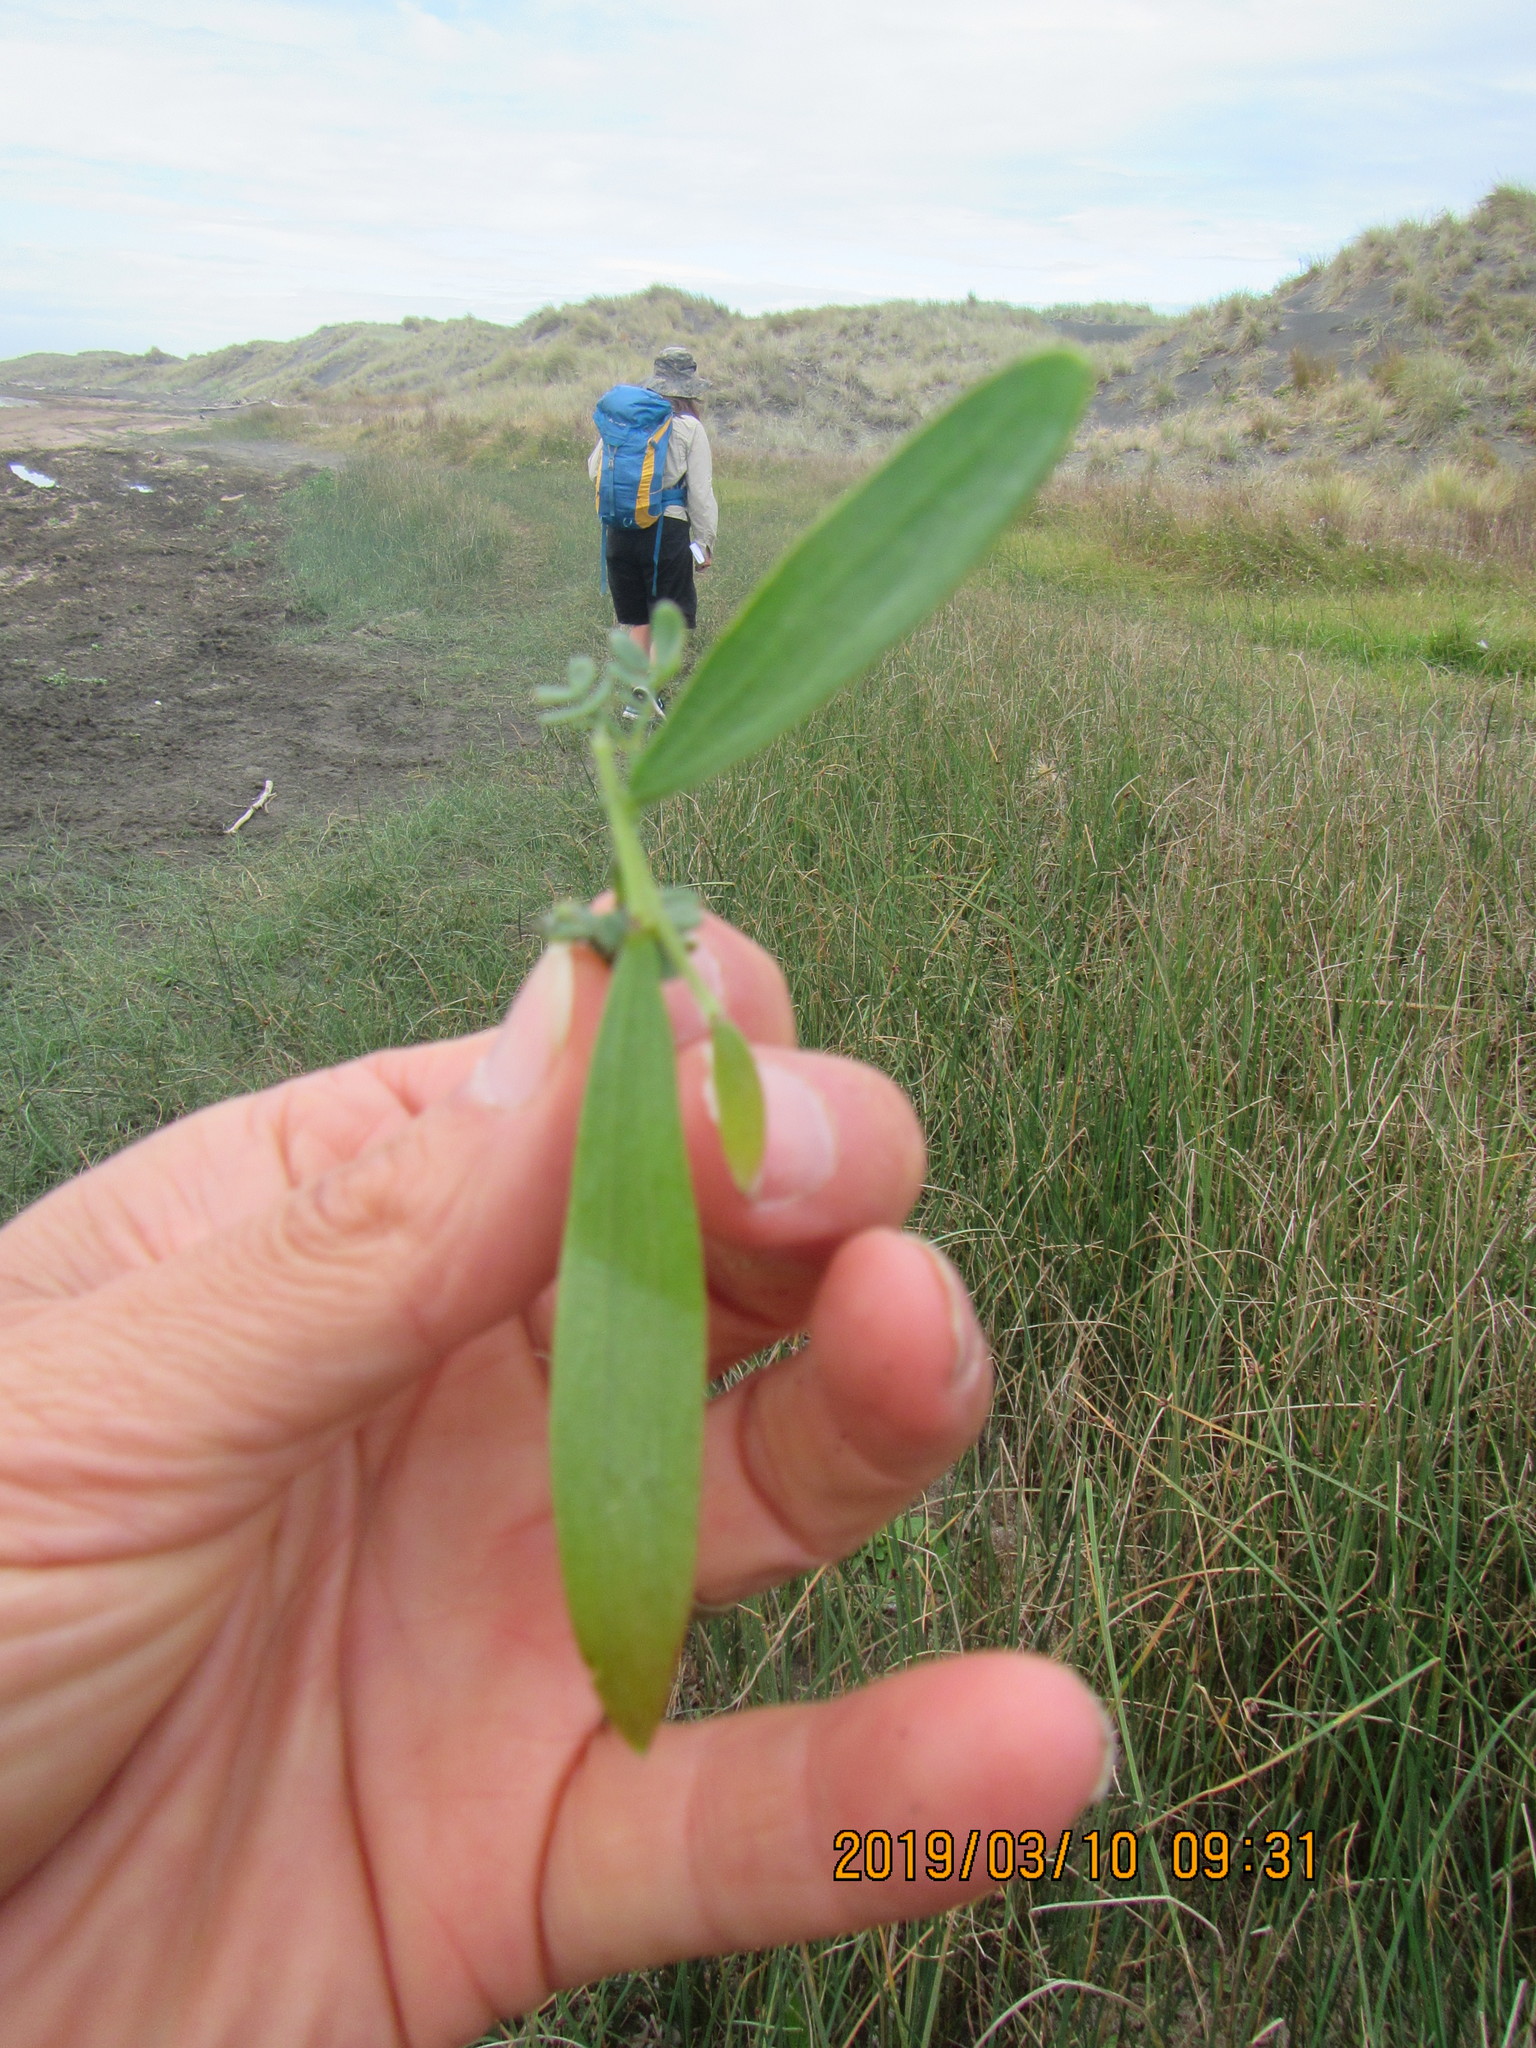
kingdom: Plantae
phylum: Tracheophyta
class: Magnoliopsida
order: Fabales
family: Fabaceae
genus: Acacia
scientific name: Acacia longifolia
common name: Sydney golden wattle
